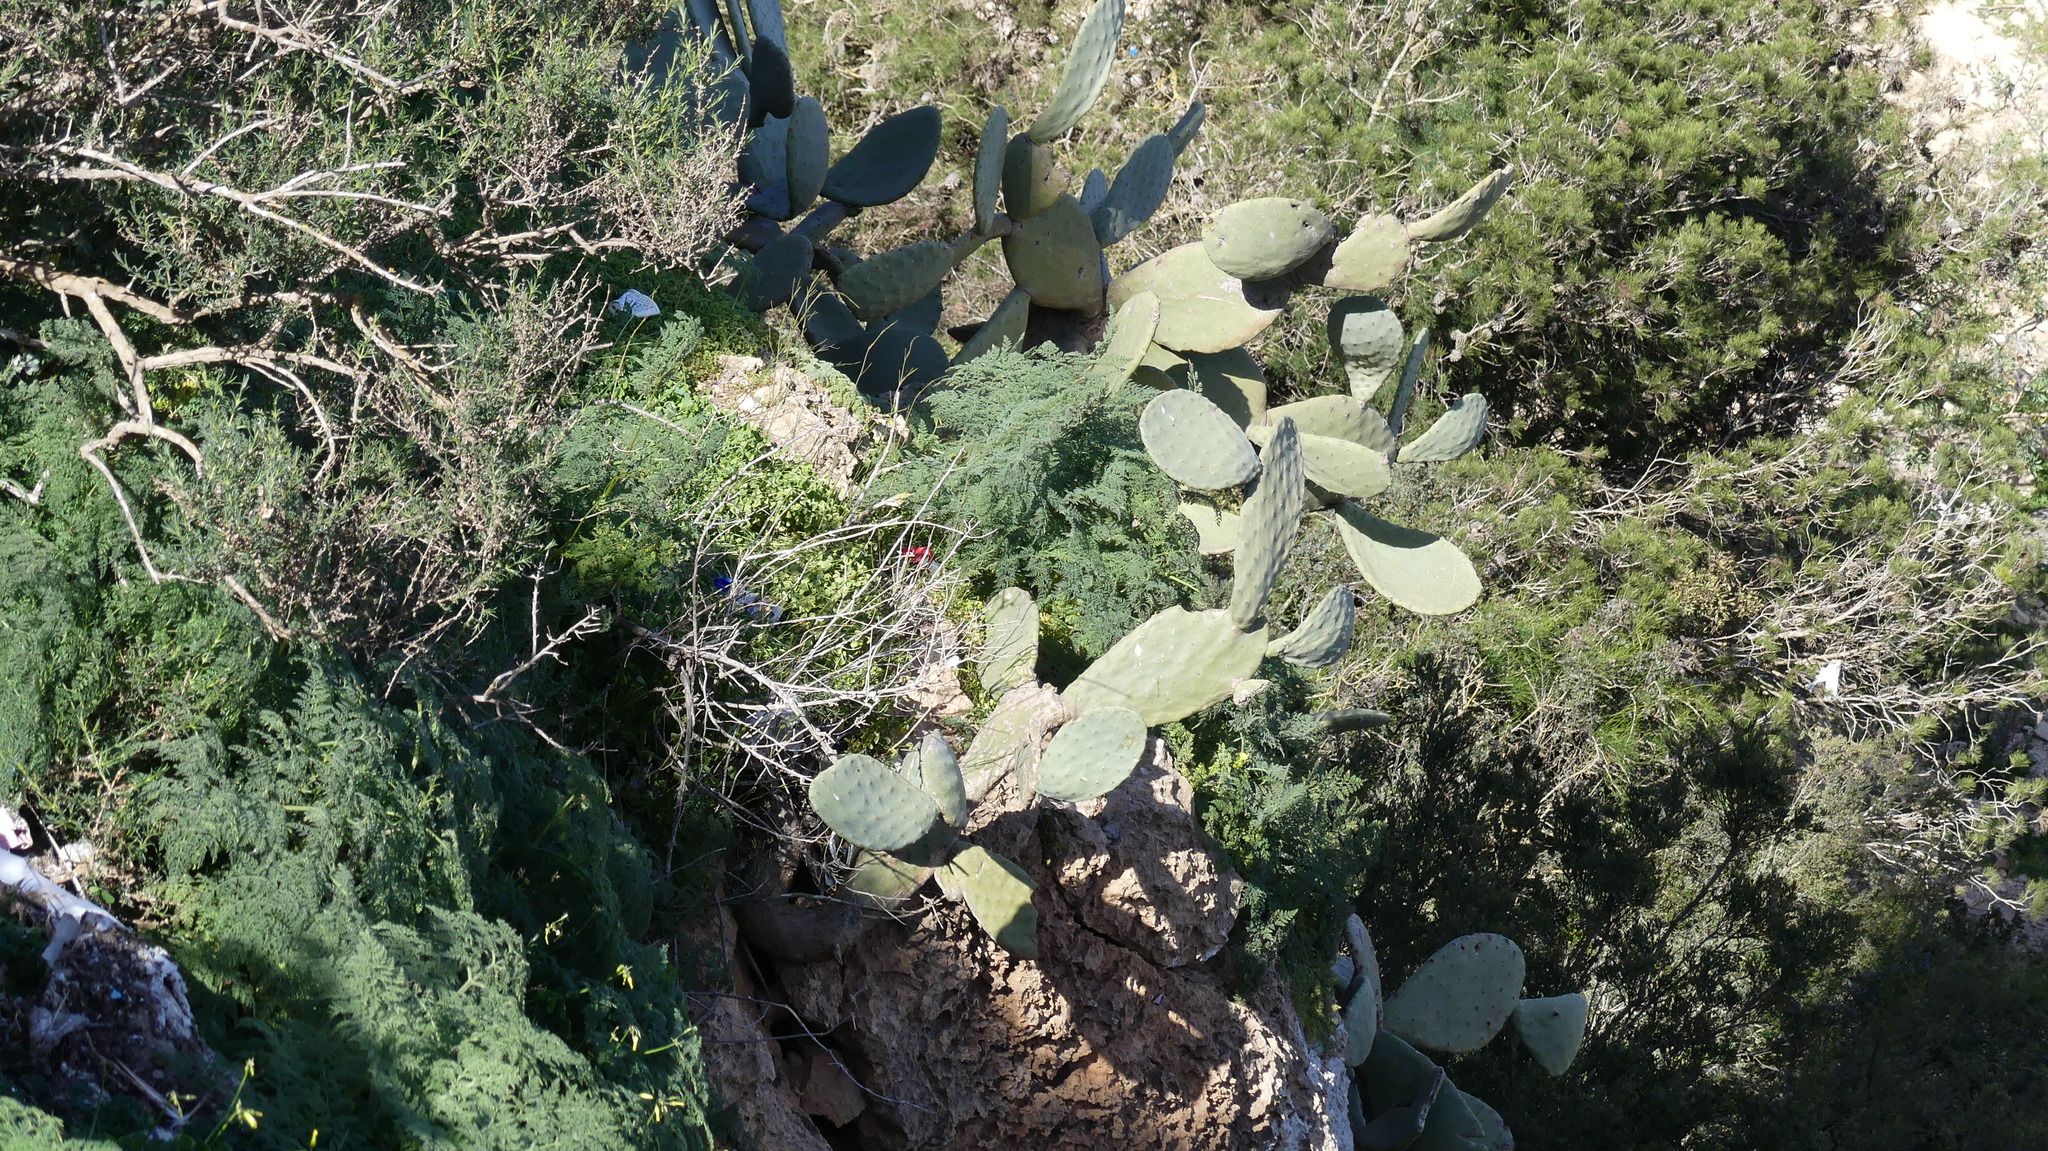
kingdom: Plantae
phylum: Tracheophyta
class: Magnoliopsida
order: Caryophyllales
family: Cactaceae
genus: Opuntia
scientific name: Opuntia ficus-indica
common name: Barbary fig
